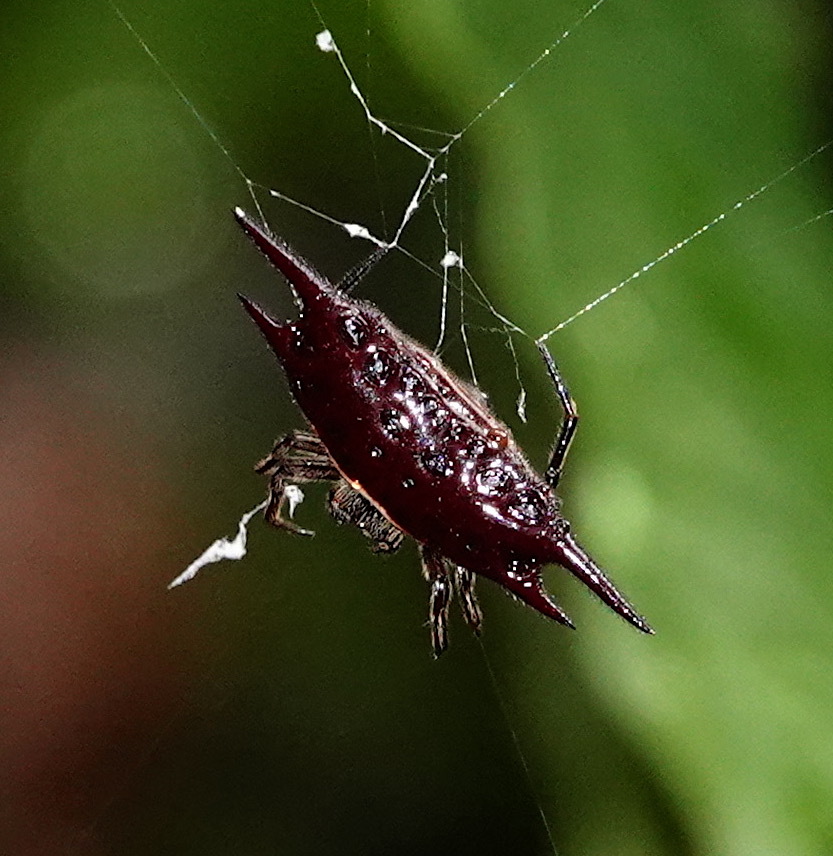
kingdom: Animalia
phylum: Arthropoda
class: Arachnida
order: Araneae
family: Araneidae
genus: Gasteracantha
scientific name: Gasteracantha mengei
